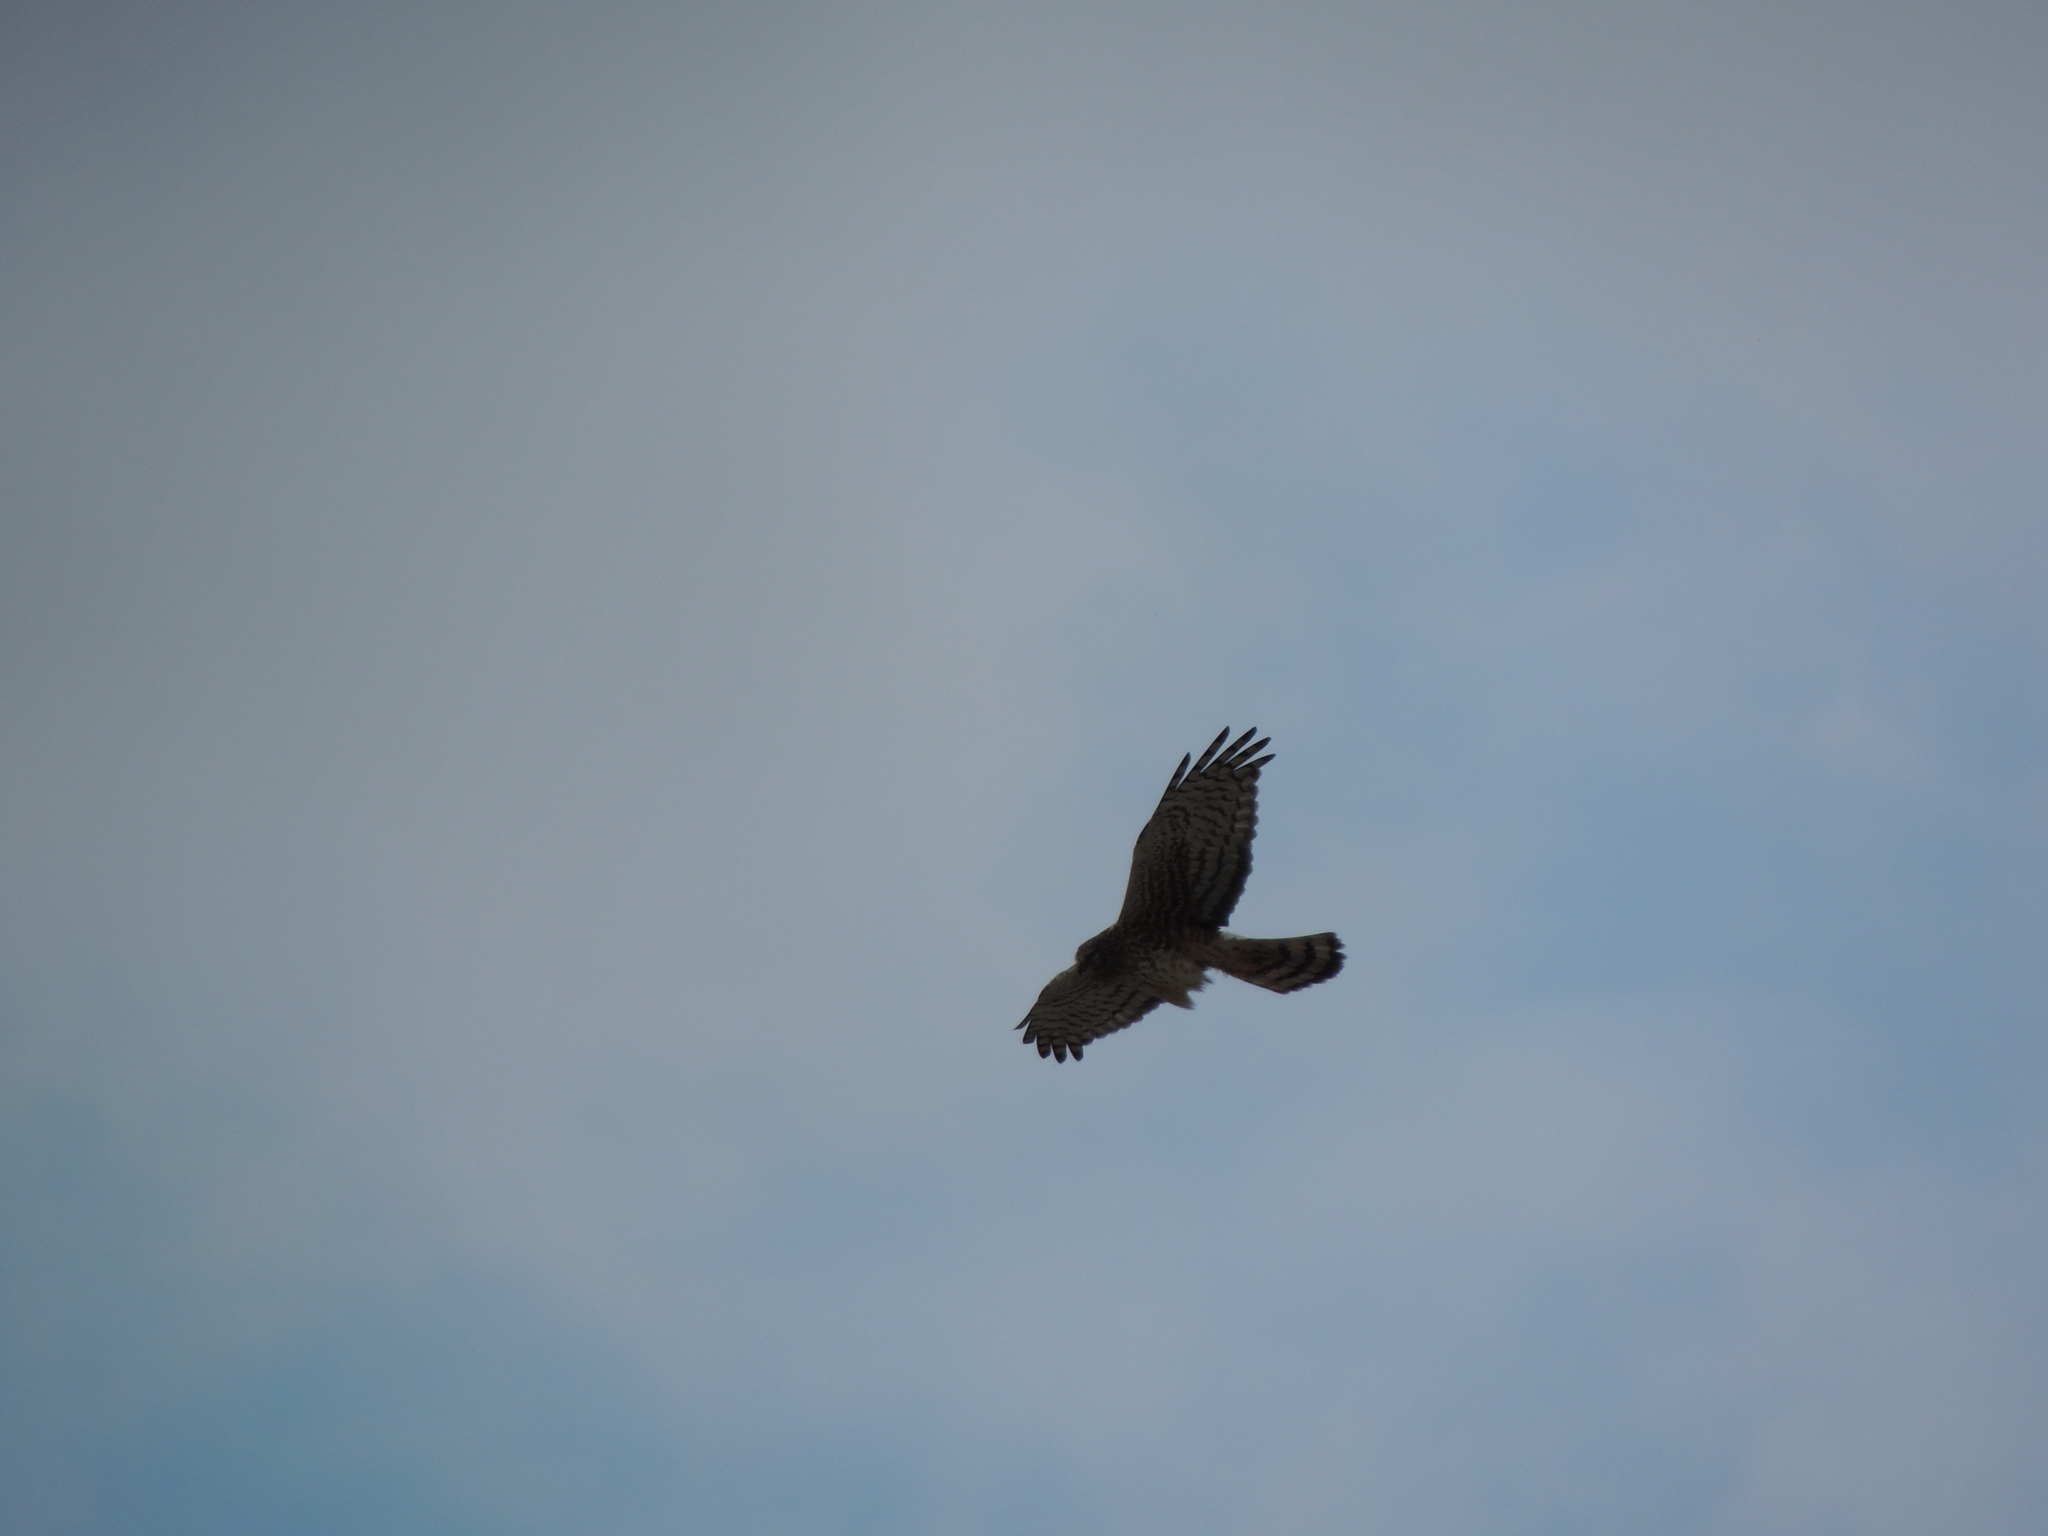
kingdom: Animalia
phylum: Chordata
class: Aves
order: Accipitriformes
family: Accipitridae
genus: Accipiter
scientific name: Accipiter cooperii
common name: Cooper's hawk
